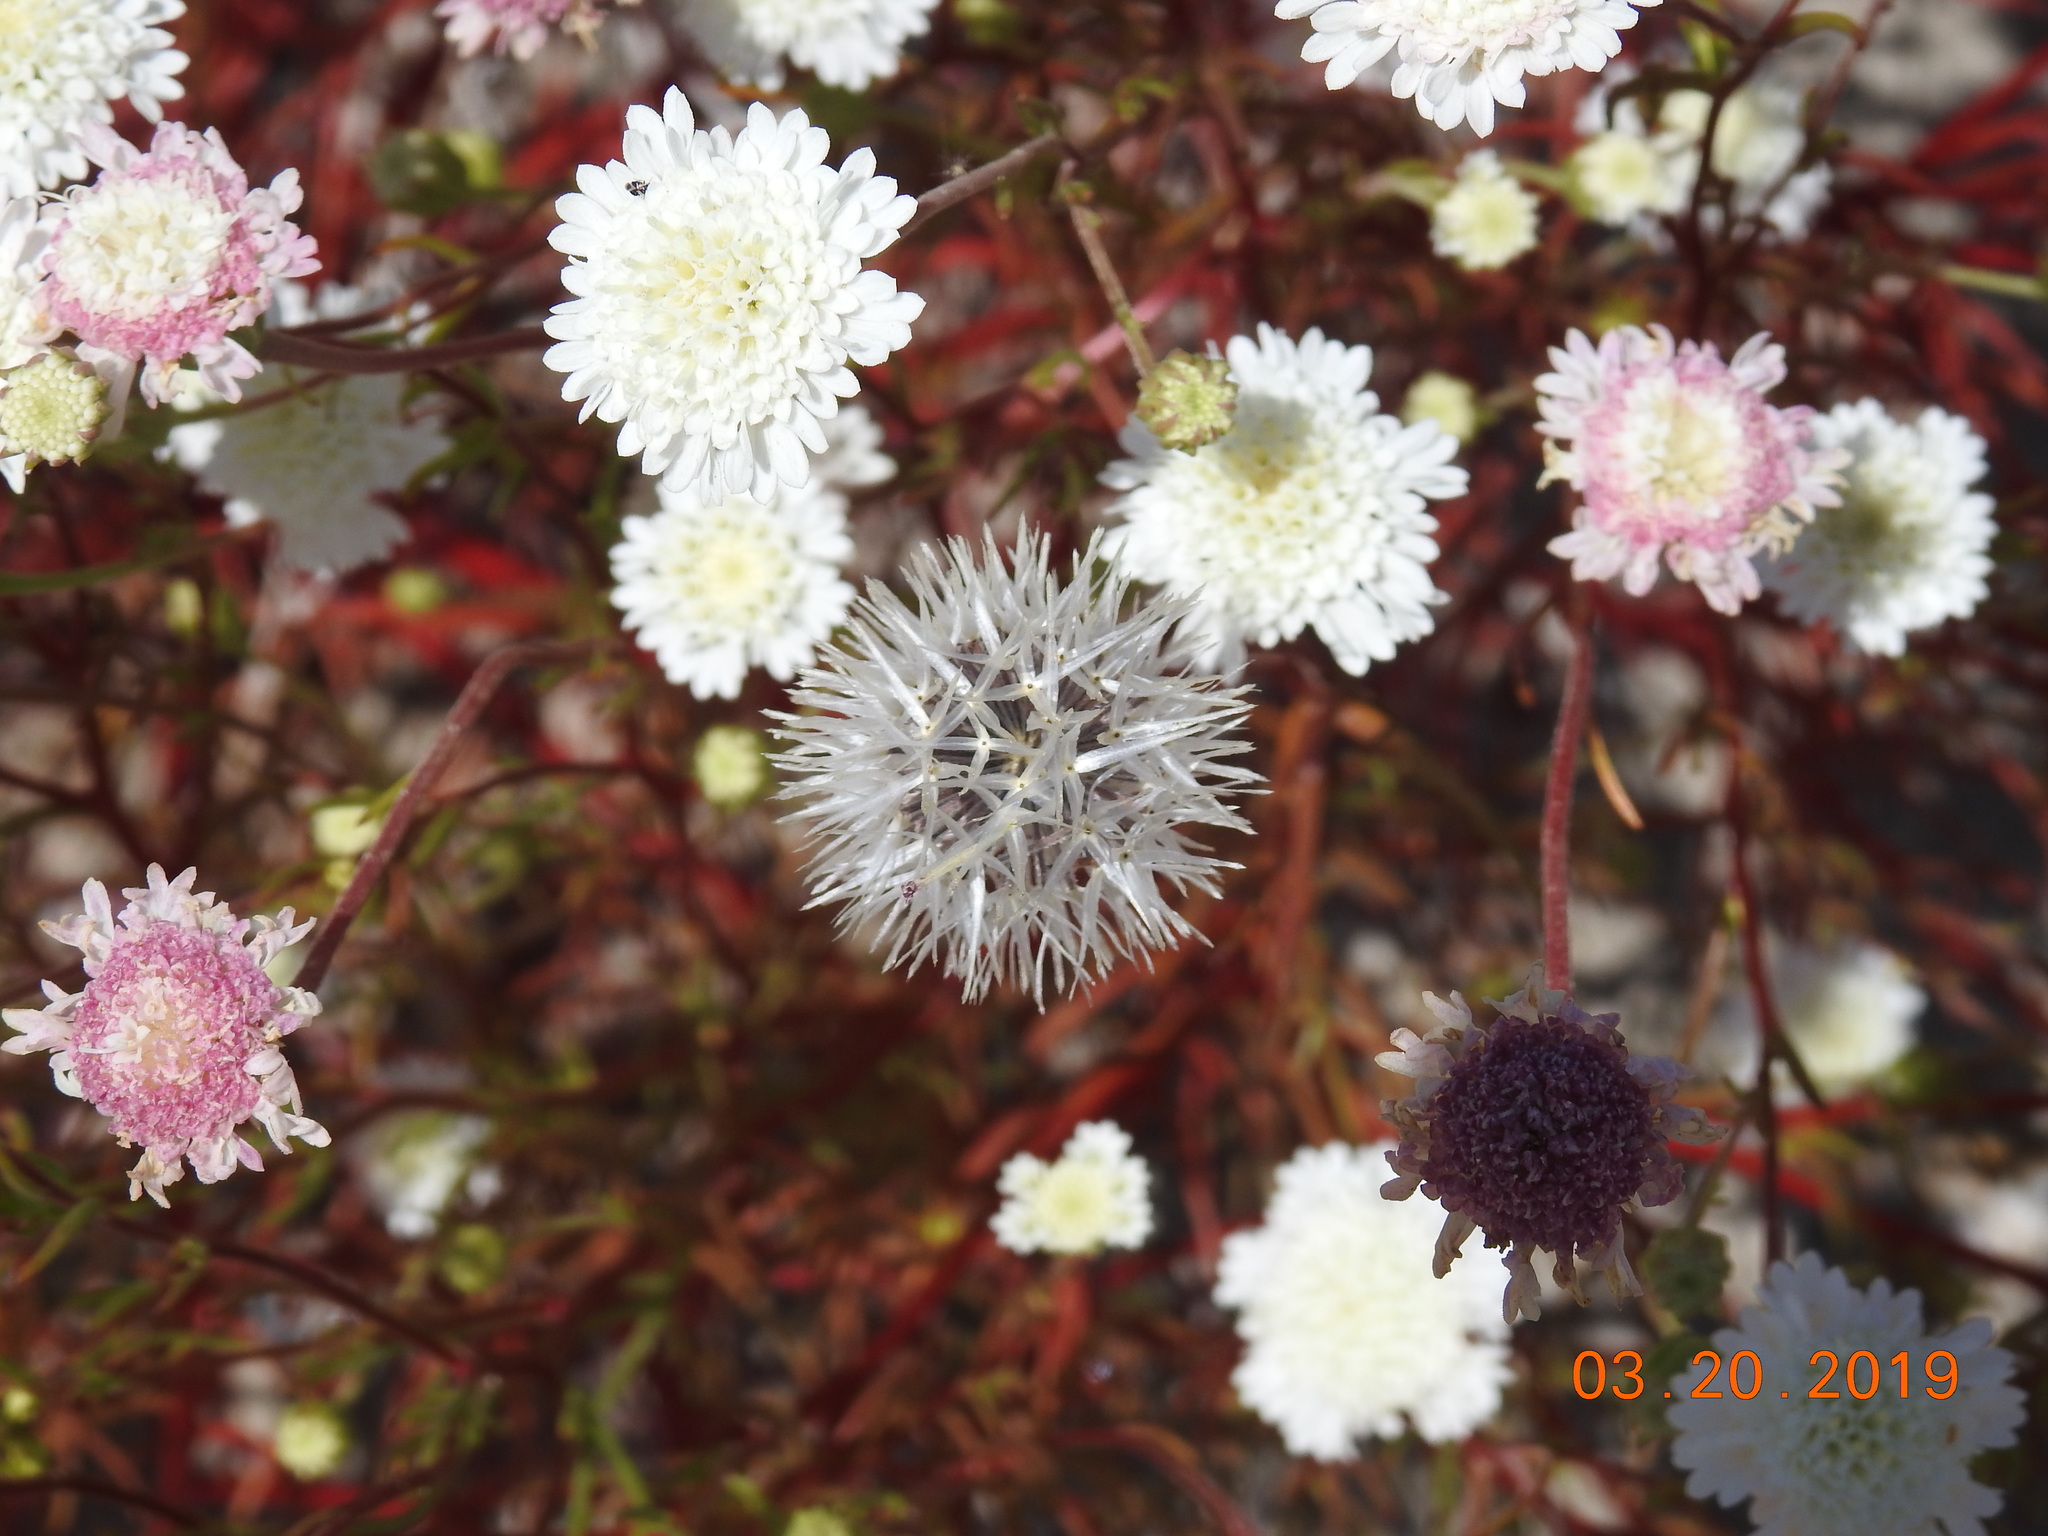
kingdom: Plantae
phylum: Tracheophyta
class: Magnoliopsida
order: Asterales
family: Asteraceae
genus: Chaenactis
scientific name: Chaenactis fremontii
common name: Fremont pincushion
